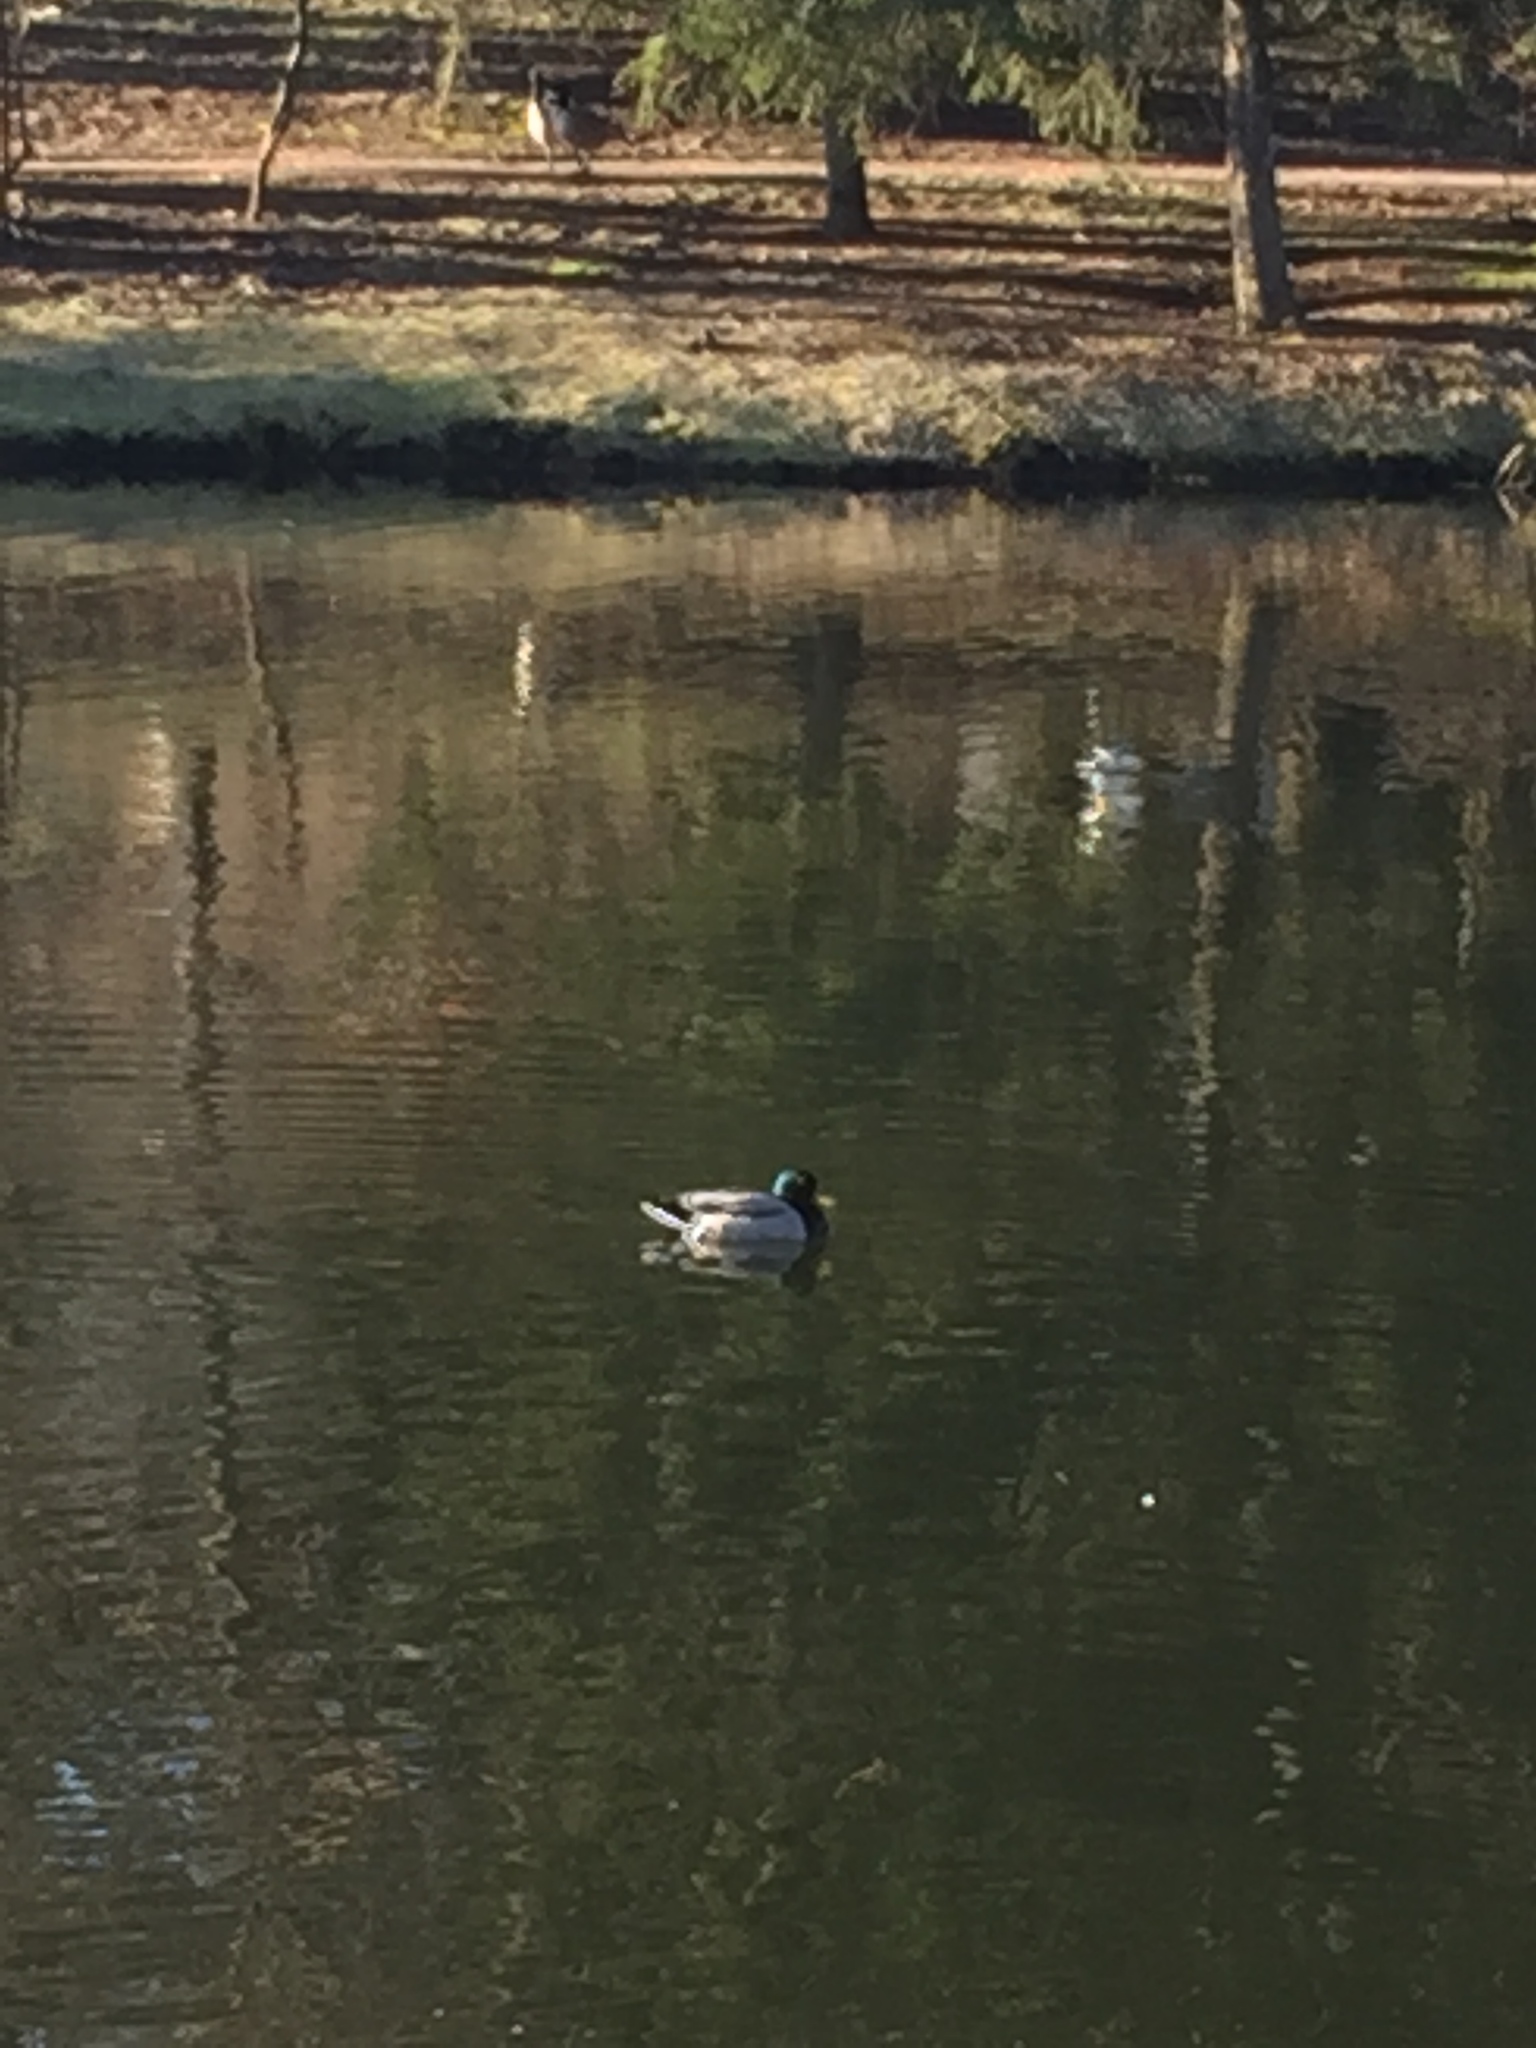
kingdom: Animalia
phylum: Chordata
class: Aves
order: Anseriformes
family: Anatidae
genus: Anas
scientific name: Anas platyrhynchos
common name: Mallard
